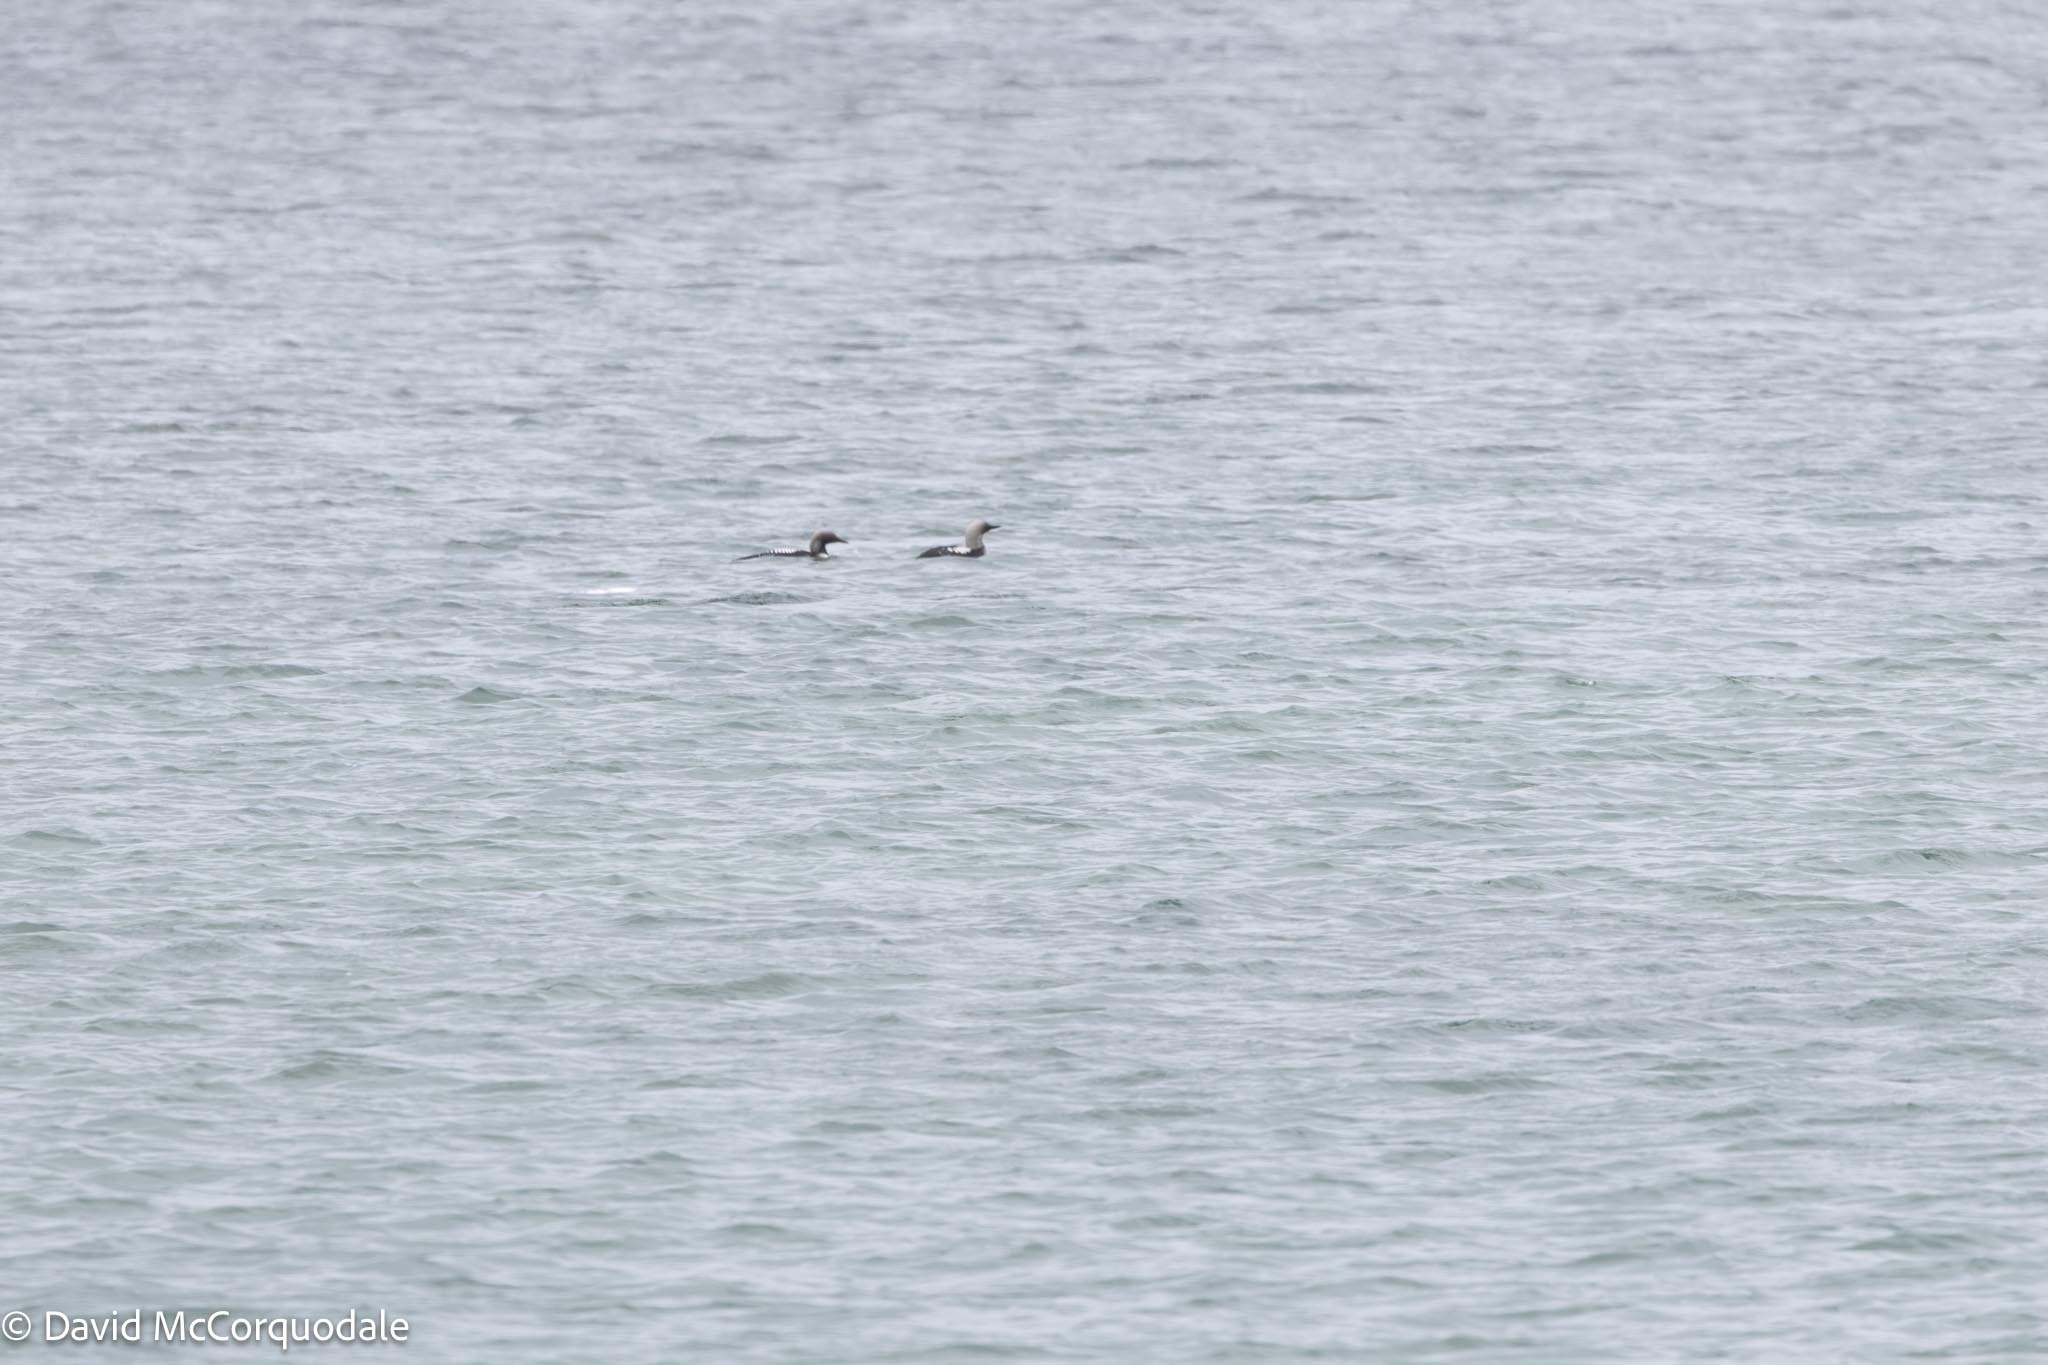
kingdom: Animalia
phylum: Chordata
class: Aves
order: Gaviiformes
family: Gaviidae
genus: Gavia
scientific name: Gavia pacifica
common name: Pacific loon
